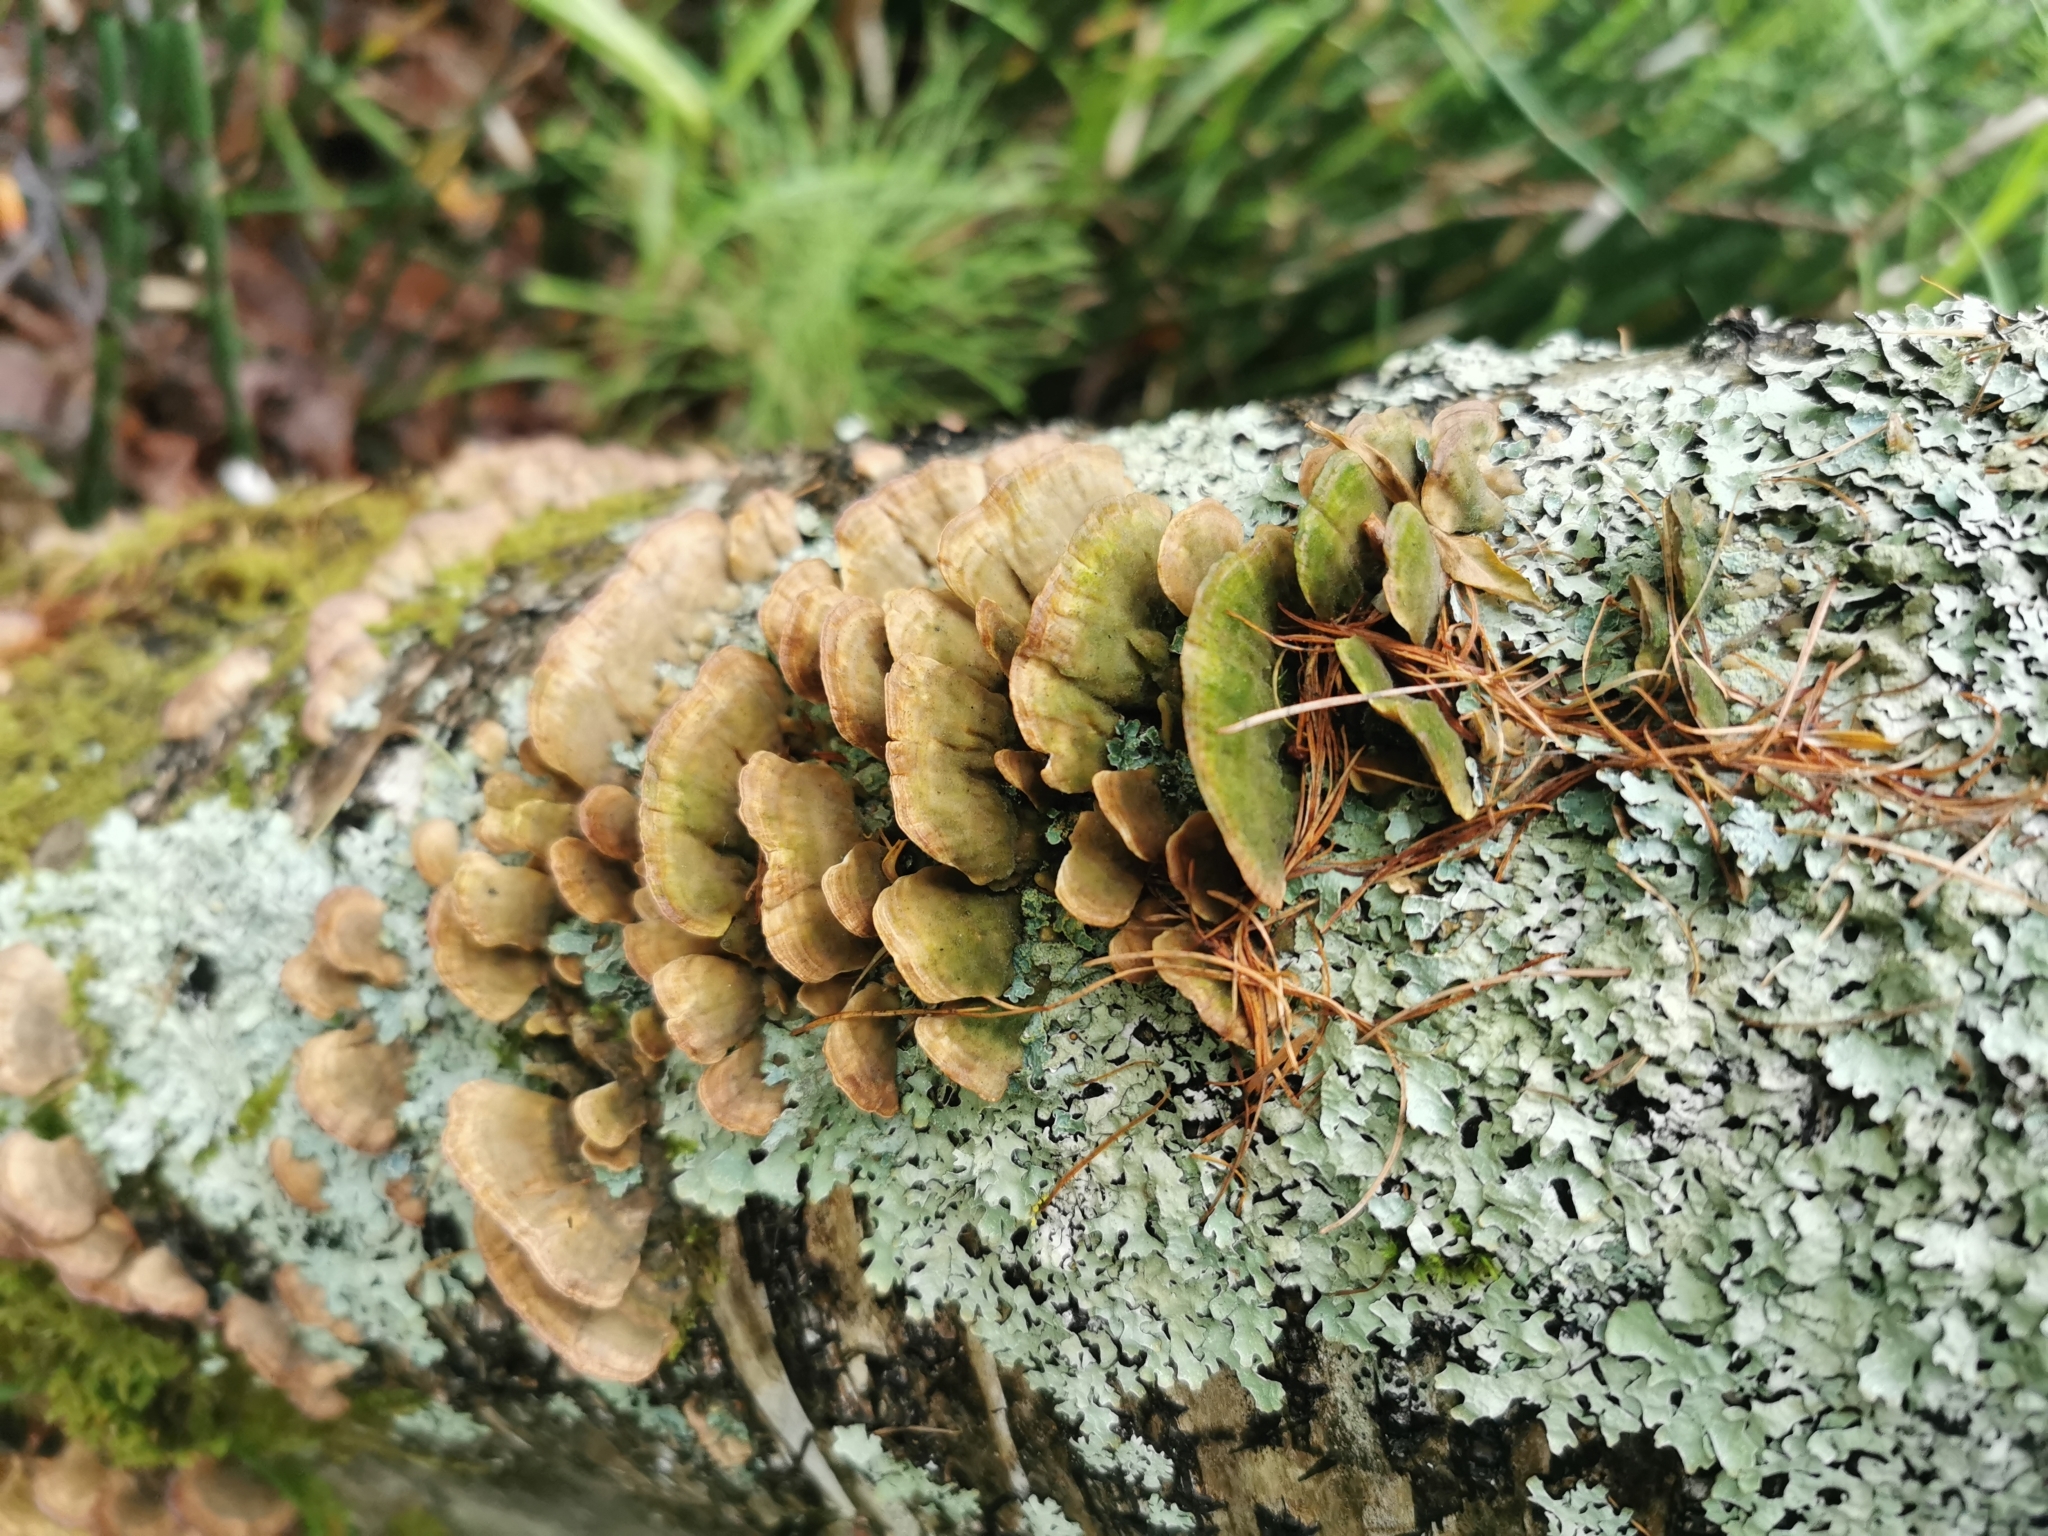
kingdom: Fungi
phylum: Basidiomycota
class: Agaricomycetes
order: Hymenochaetales
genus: Trichaptum
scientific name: Trichaptum biforme
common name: Violet-toothed polypore
